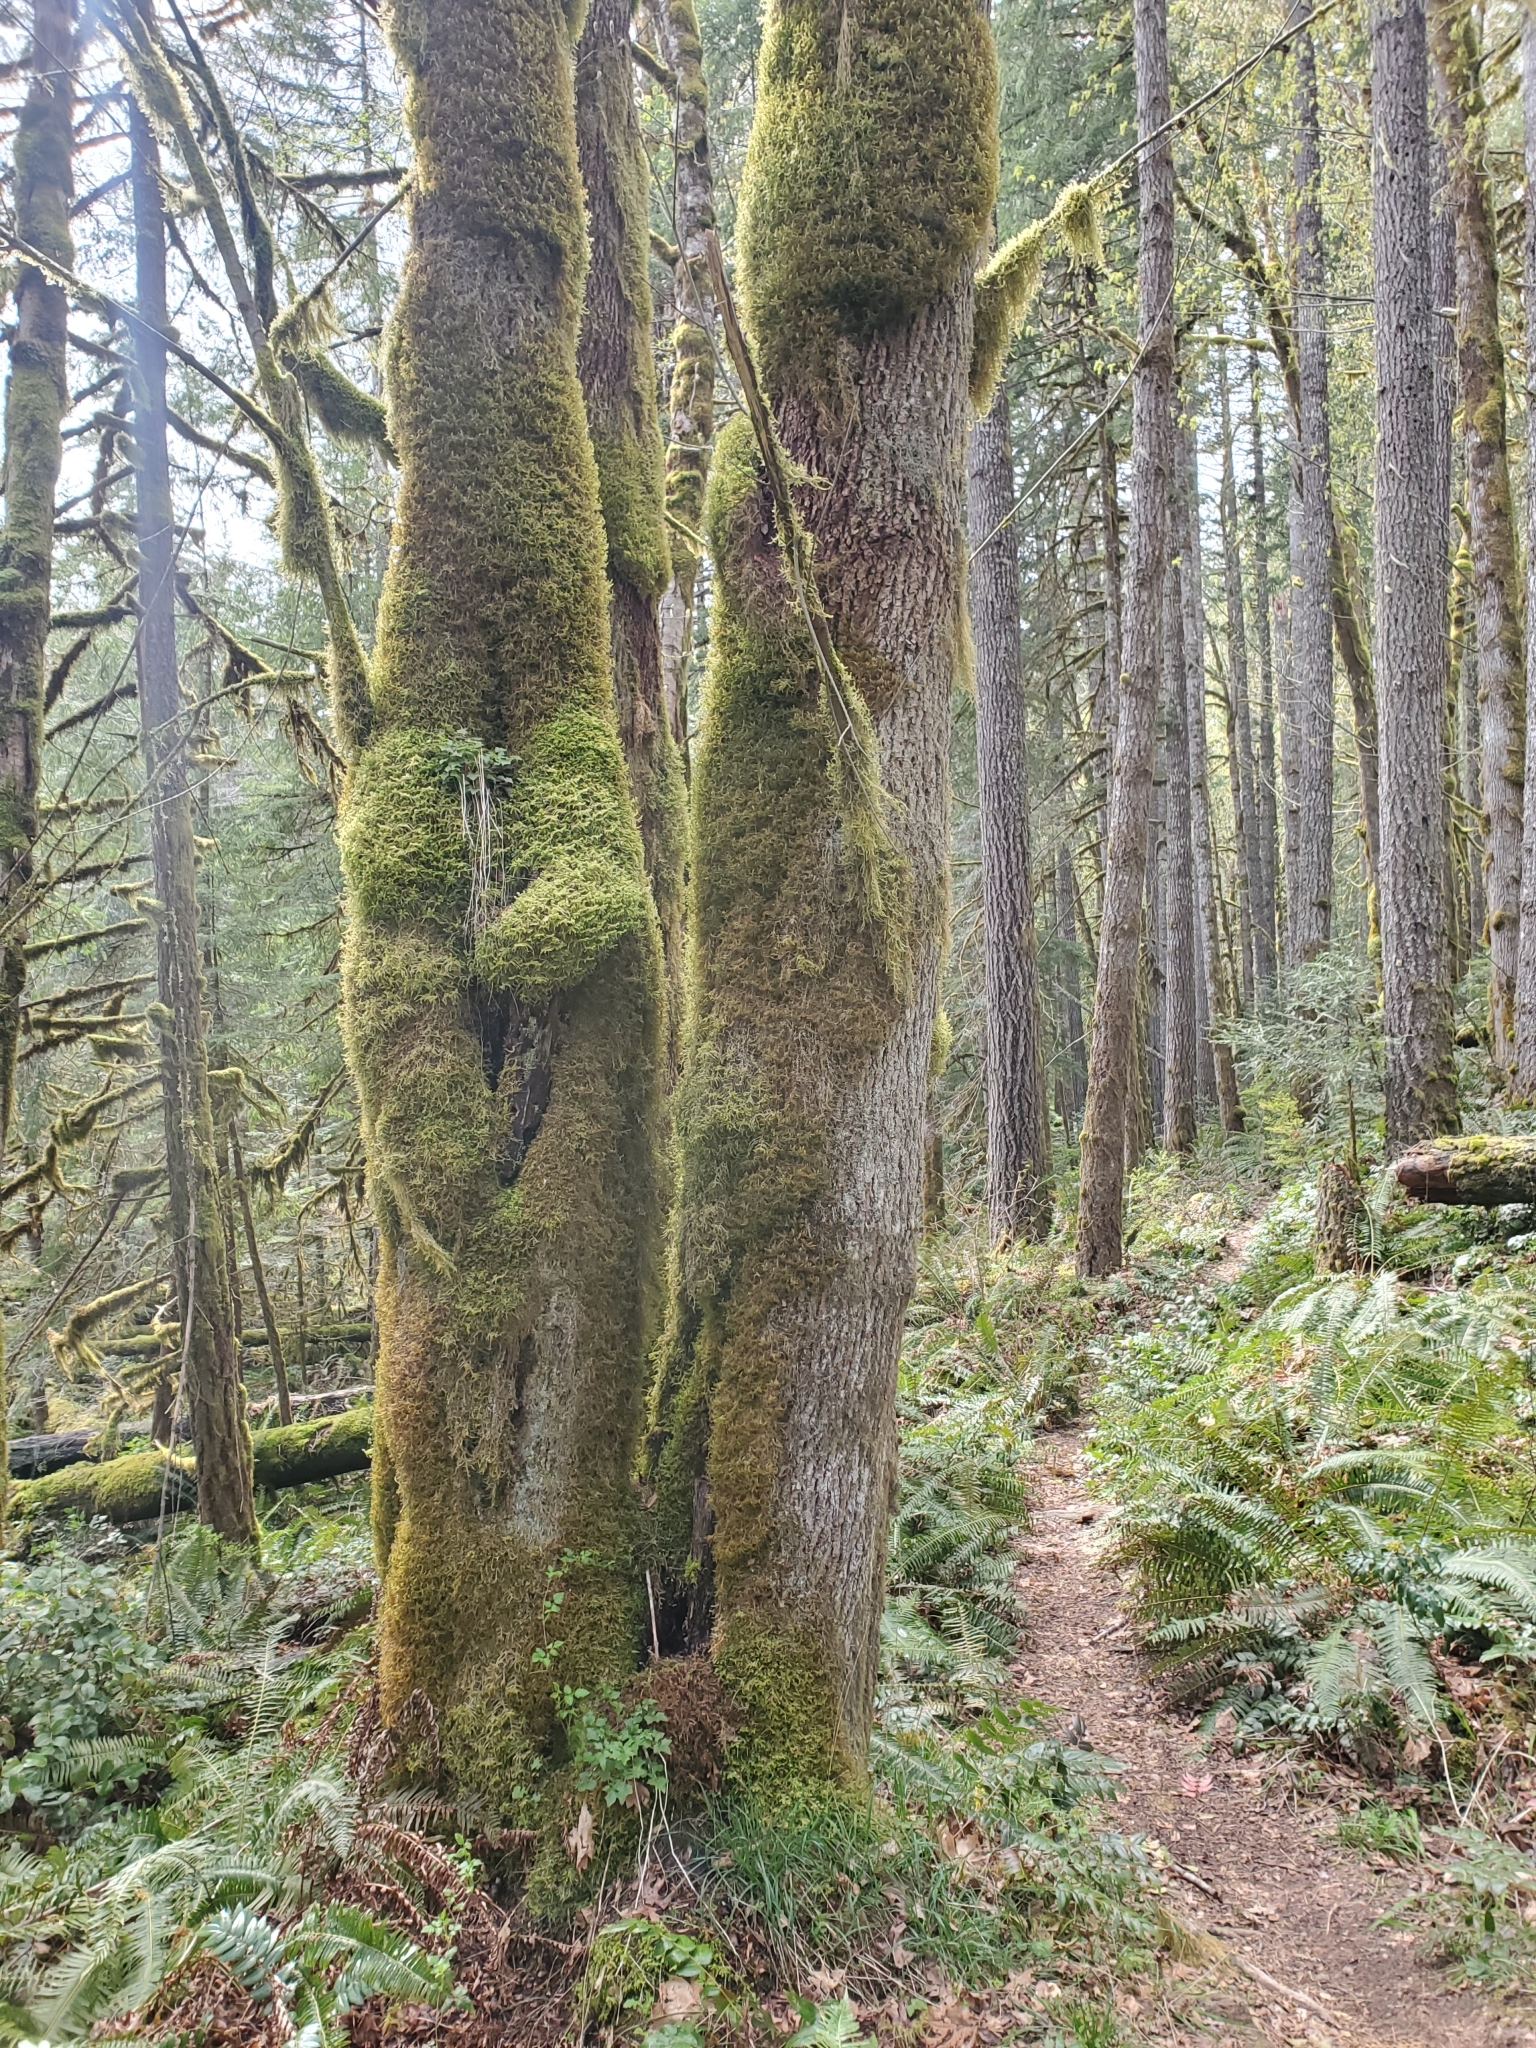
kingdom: Plantae
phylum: Tracheophyta
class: Magnoliopsida
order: Sapindales
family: Sapindaceae
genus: Acer
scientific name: Acer macrophyllum
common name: Oregon maple
